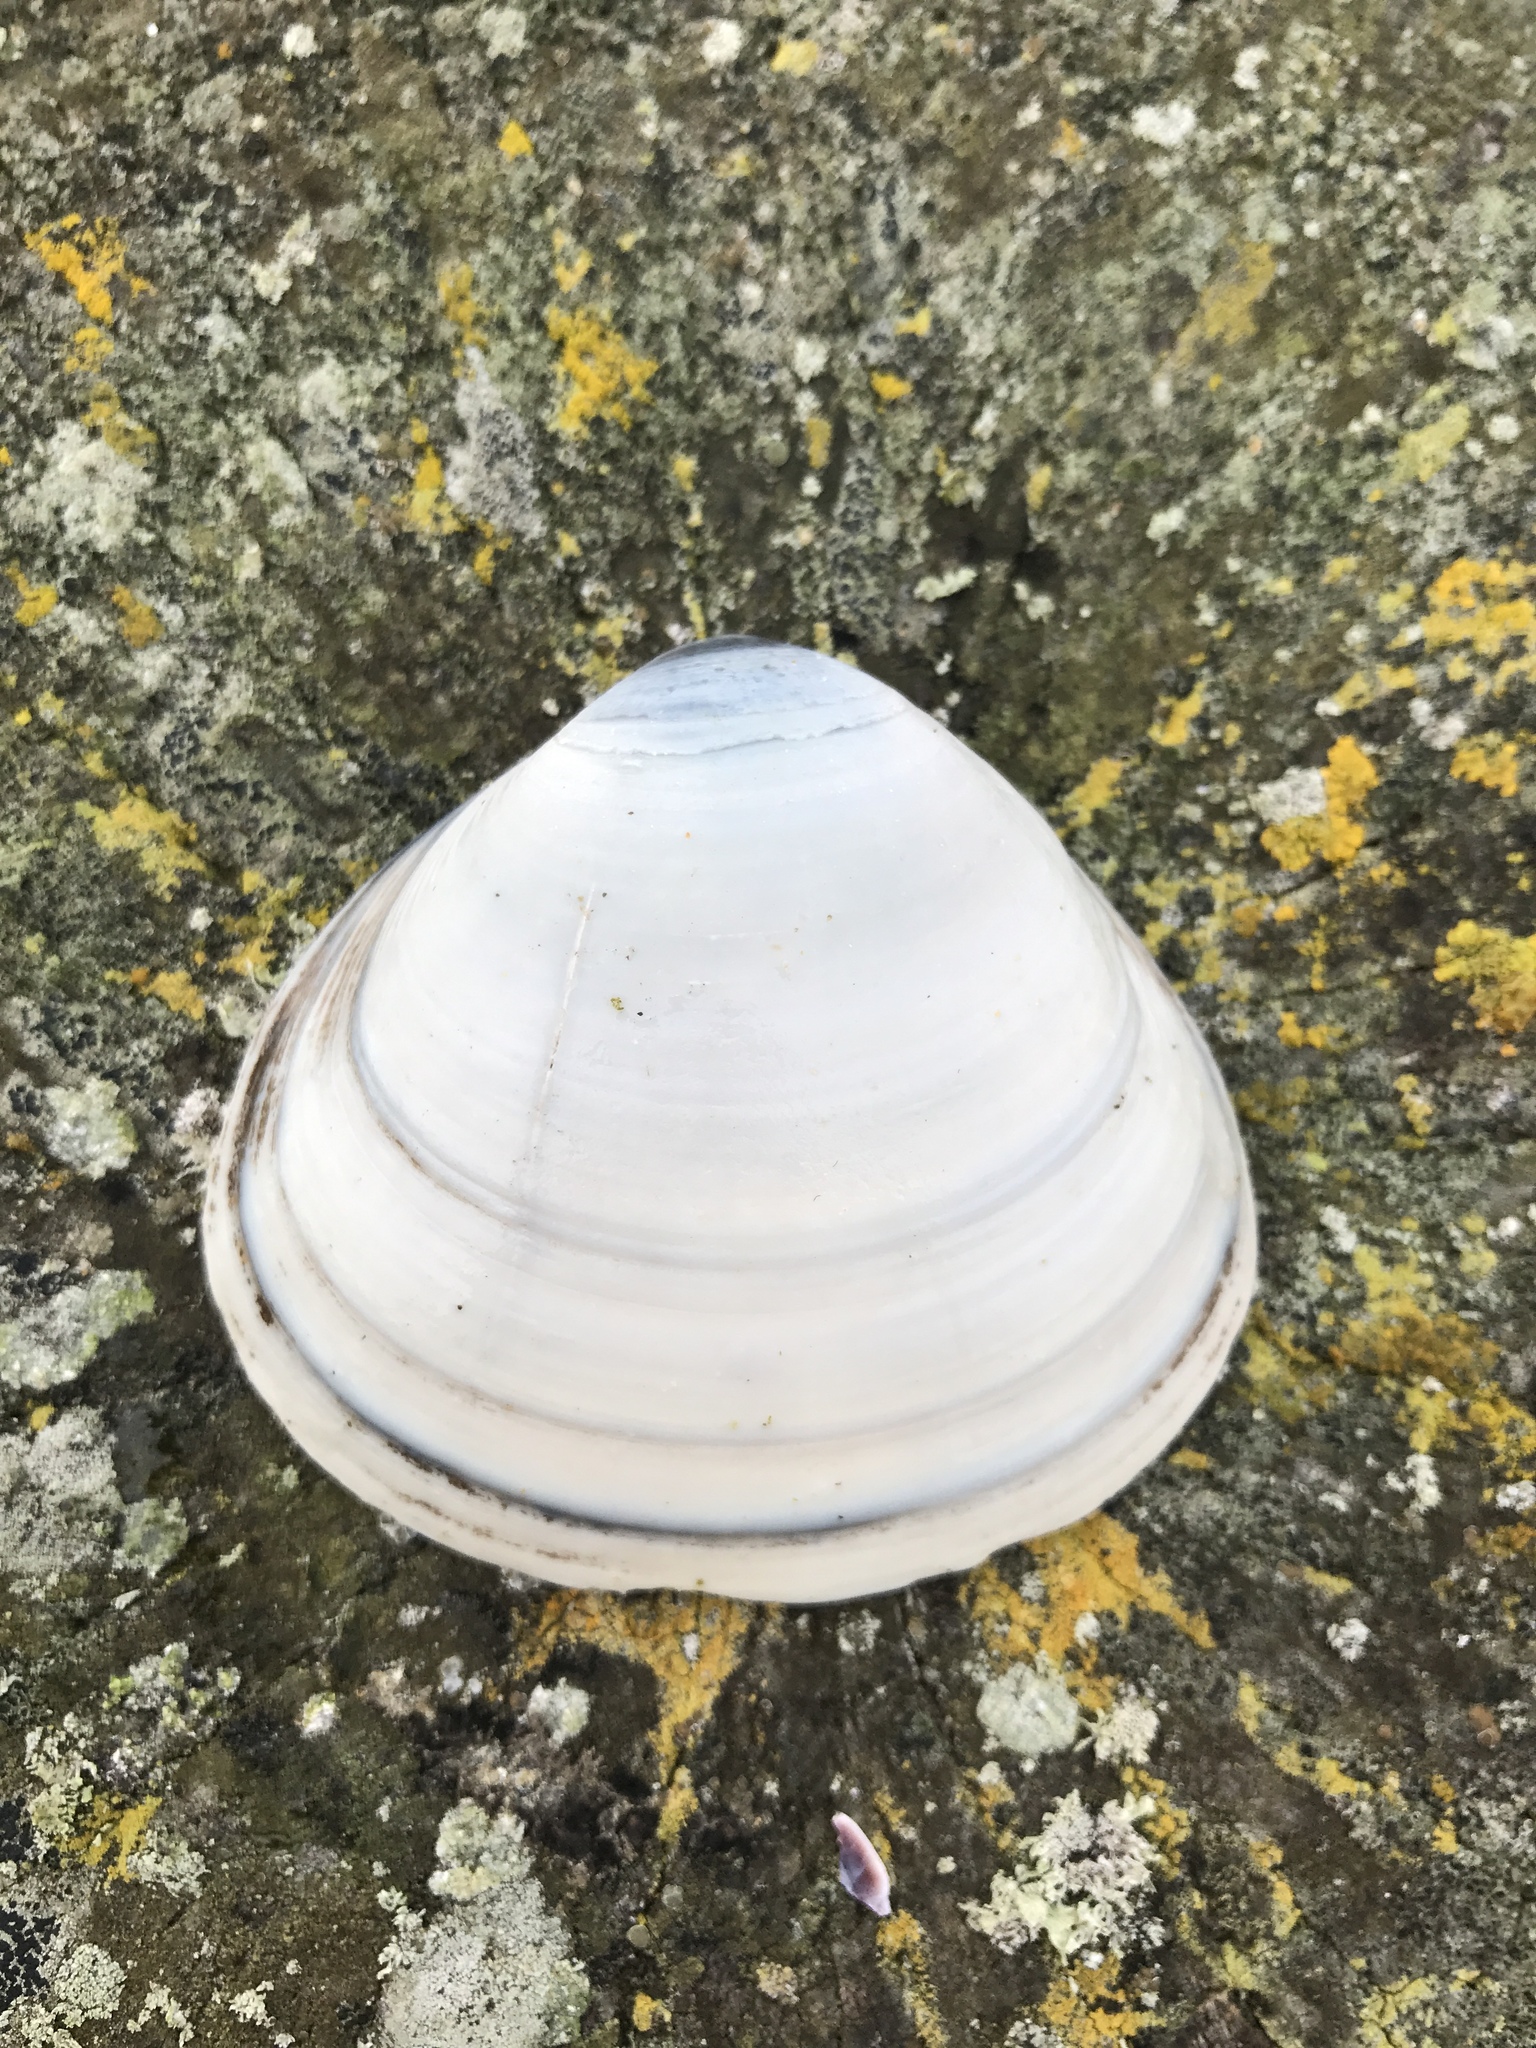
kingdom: Animalia
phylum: Mollusca
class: Bivalvia
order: Venerida
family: Mactridae
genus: Spisula
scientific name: Spisula discors
